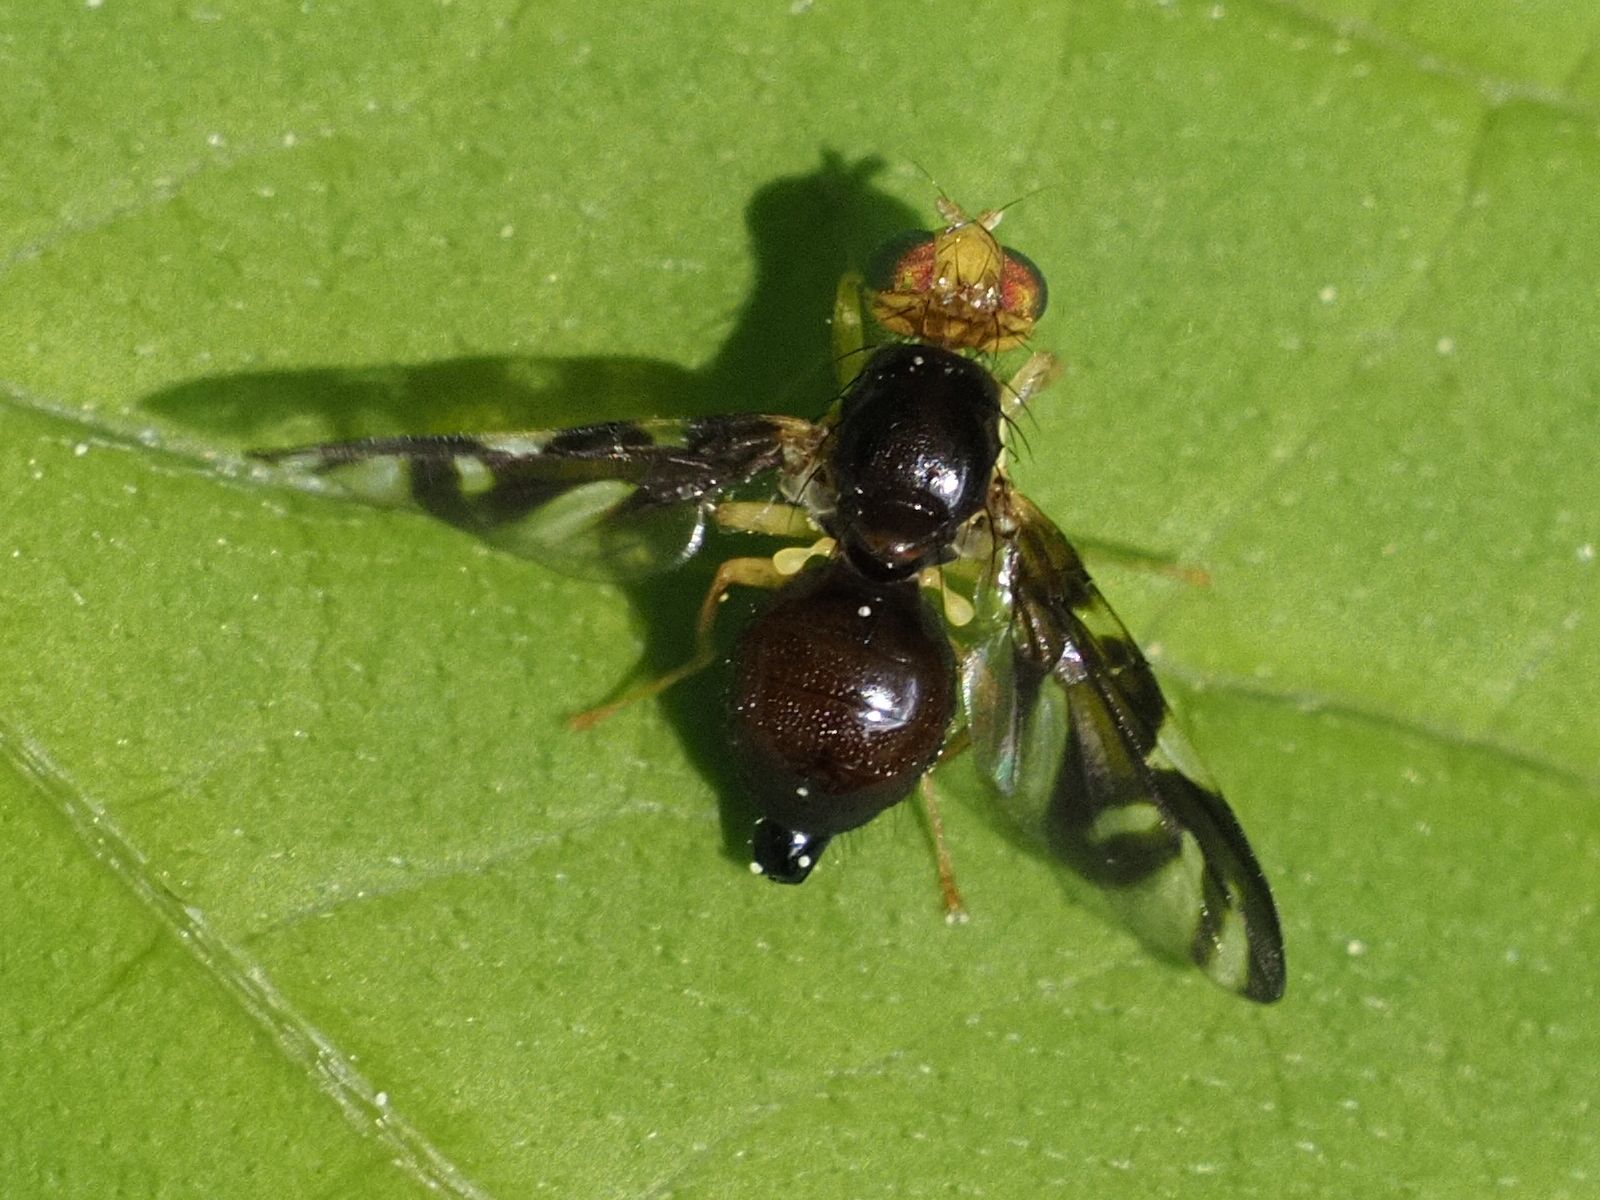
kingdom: Animalia
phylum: Arthropoda
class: Insecta
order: Diptera
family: Tephritidae
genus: Euleia
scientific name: Euleia heraclei
